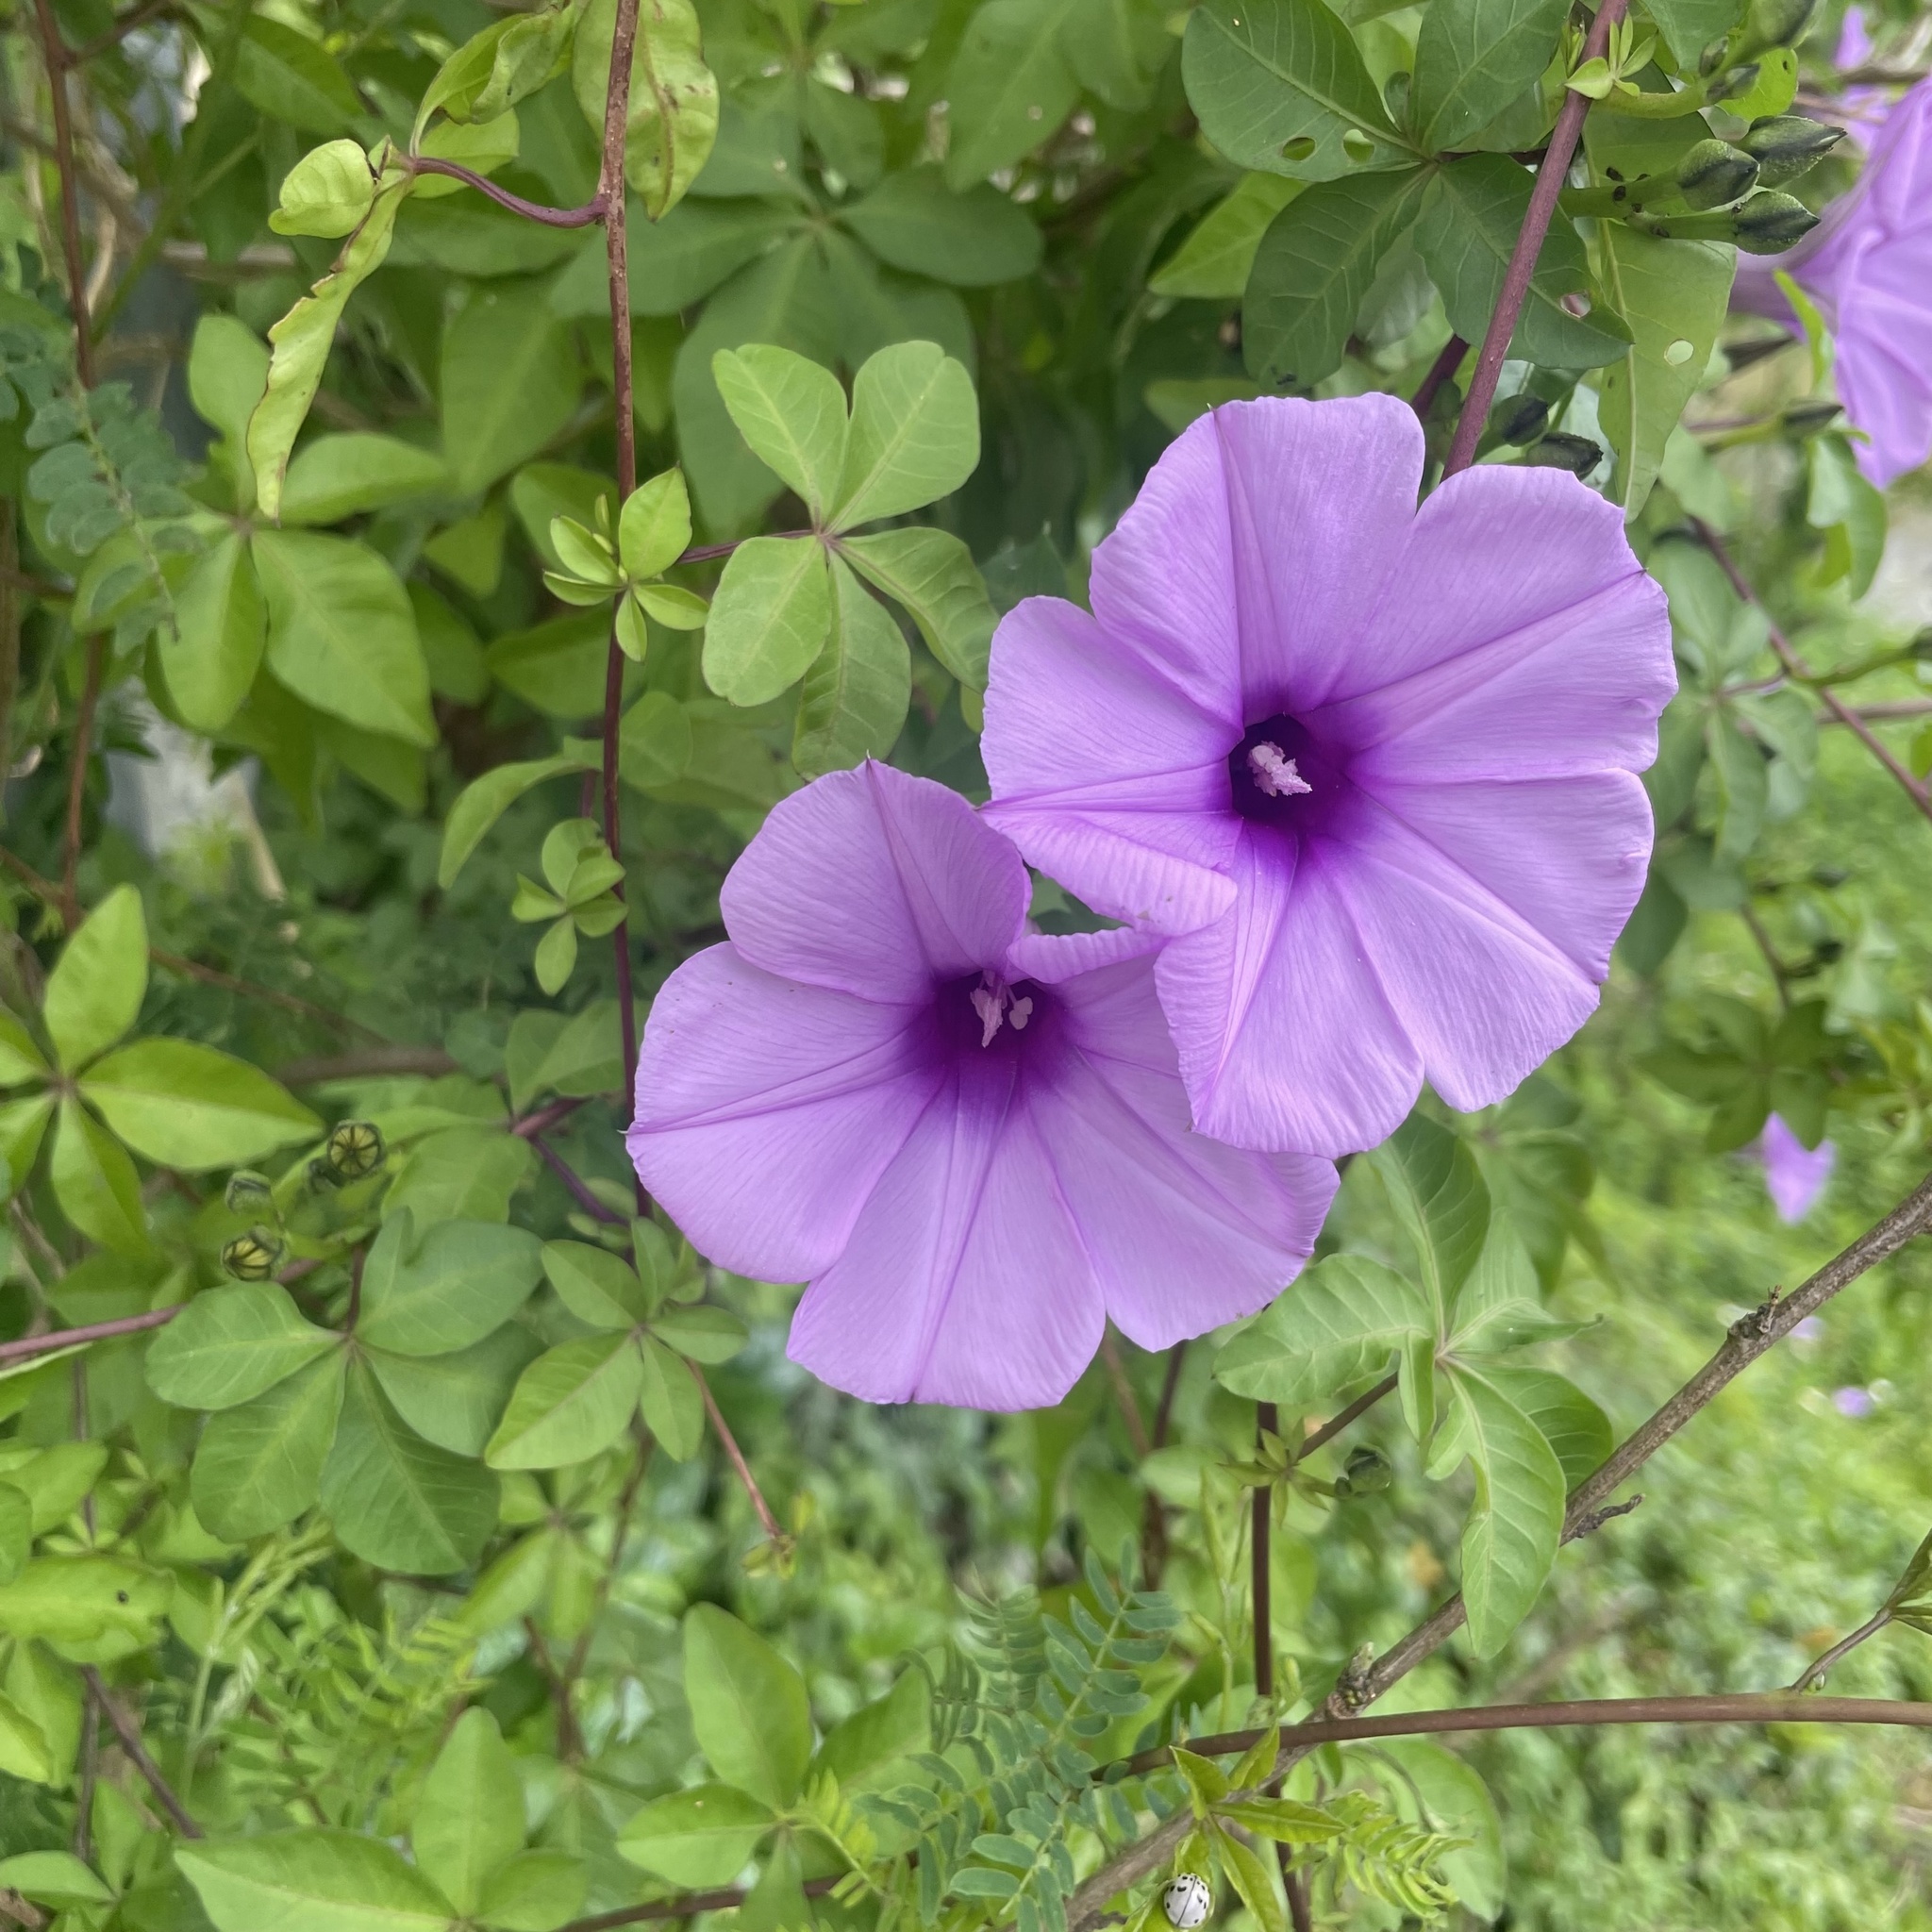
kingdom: Plantae
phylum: Tracheophyta
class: Magnoliopsida
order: Solanales
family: Convolvulaceae
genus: Ipomoea
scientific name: Ipomoea cairica
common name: Mile a minute vine
